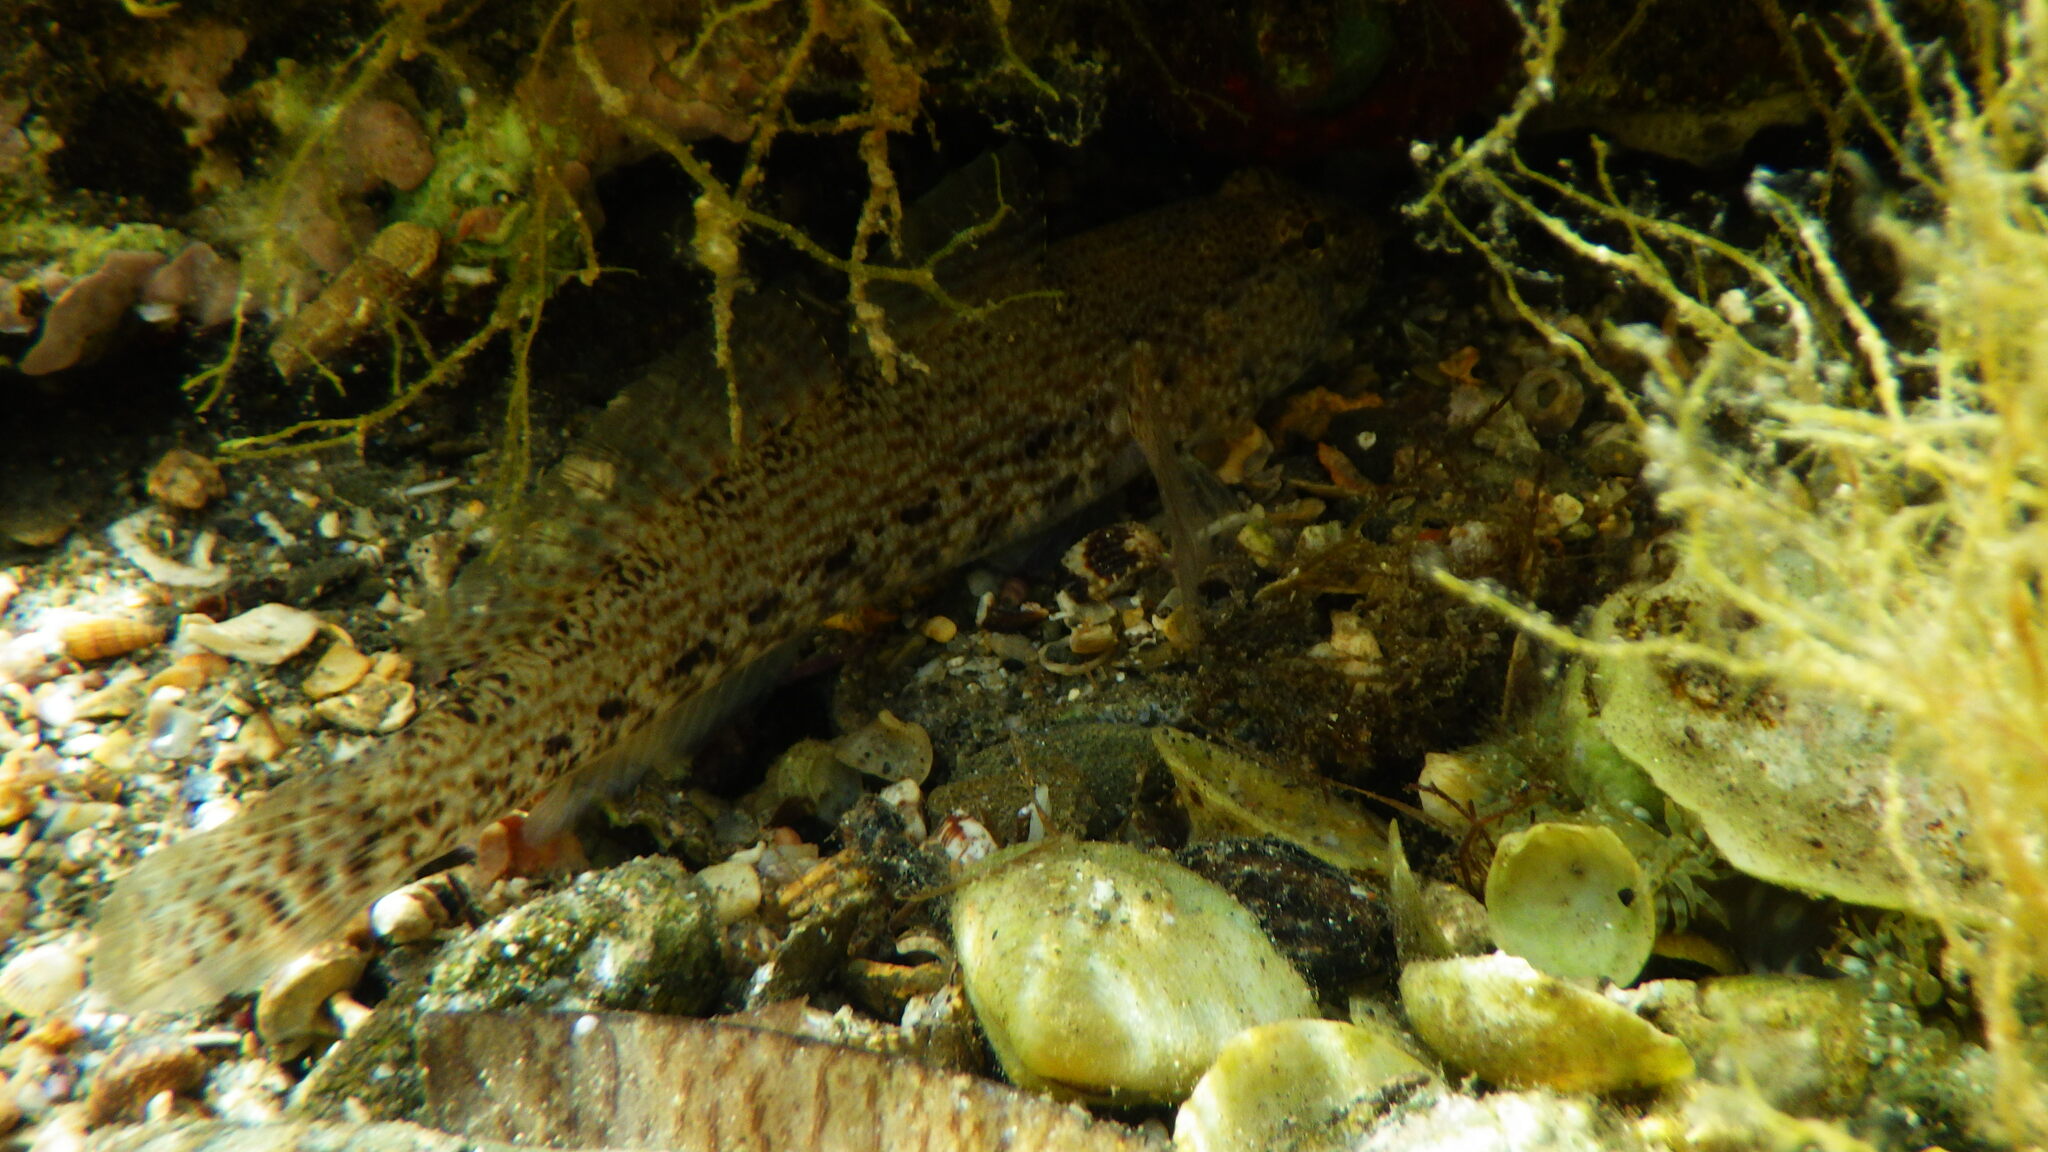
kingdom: Animalia
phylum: Chordata
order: Perciformes
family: Gobiidae
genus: Gobius
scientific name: Gobius incognitus
